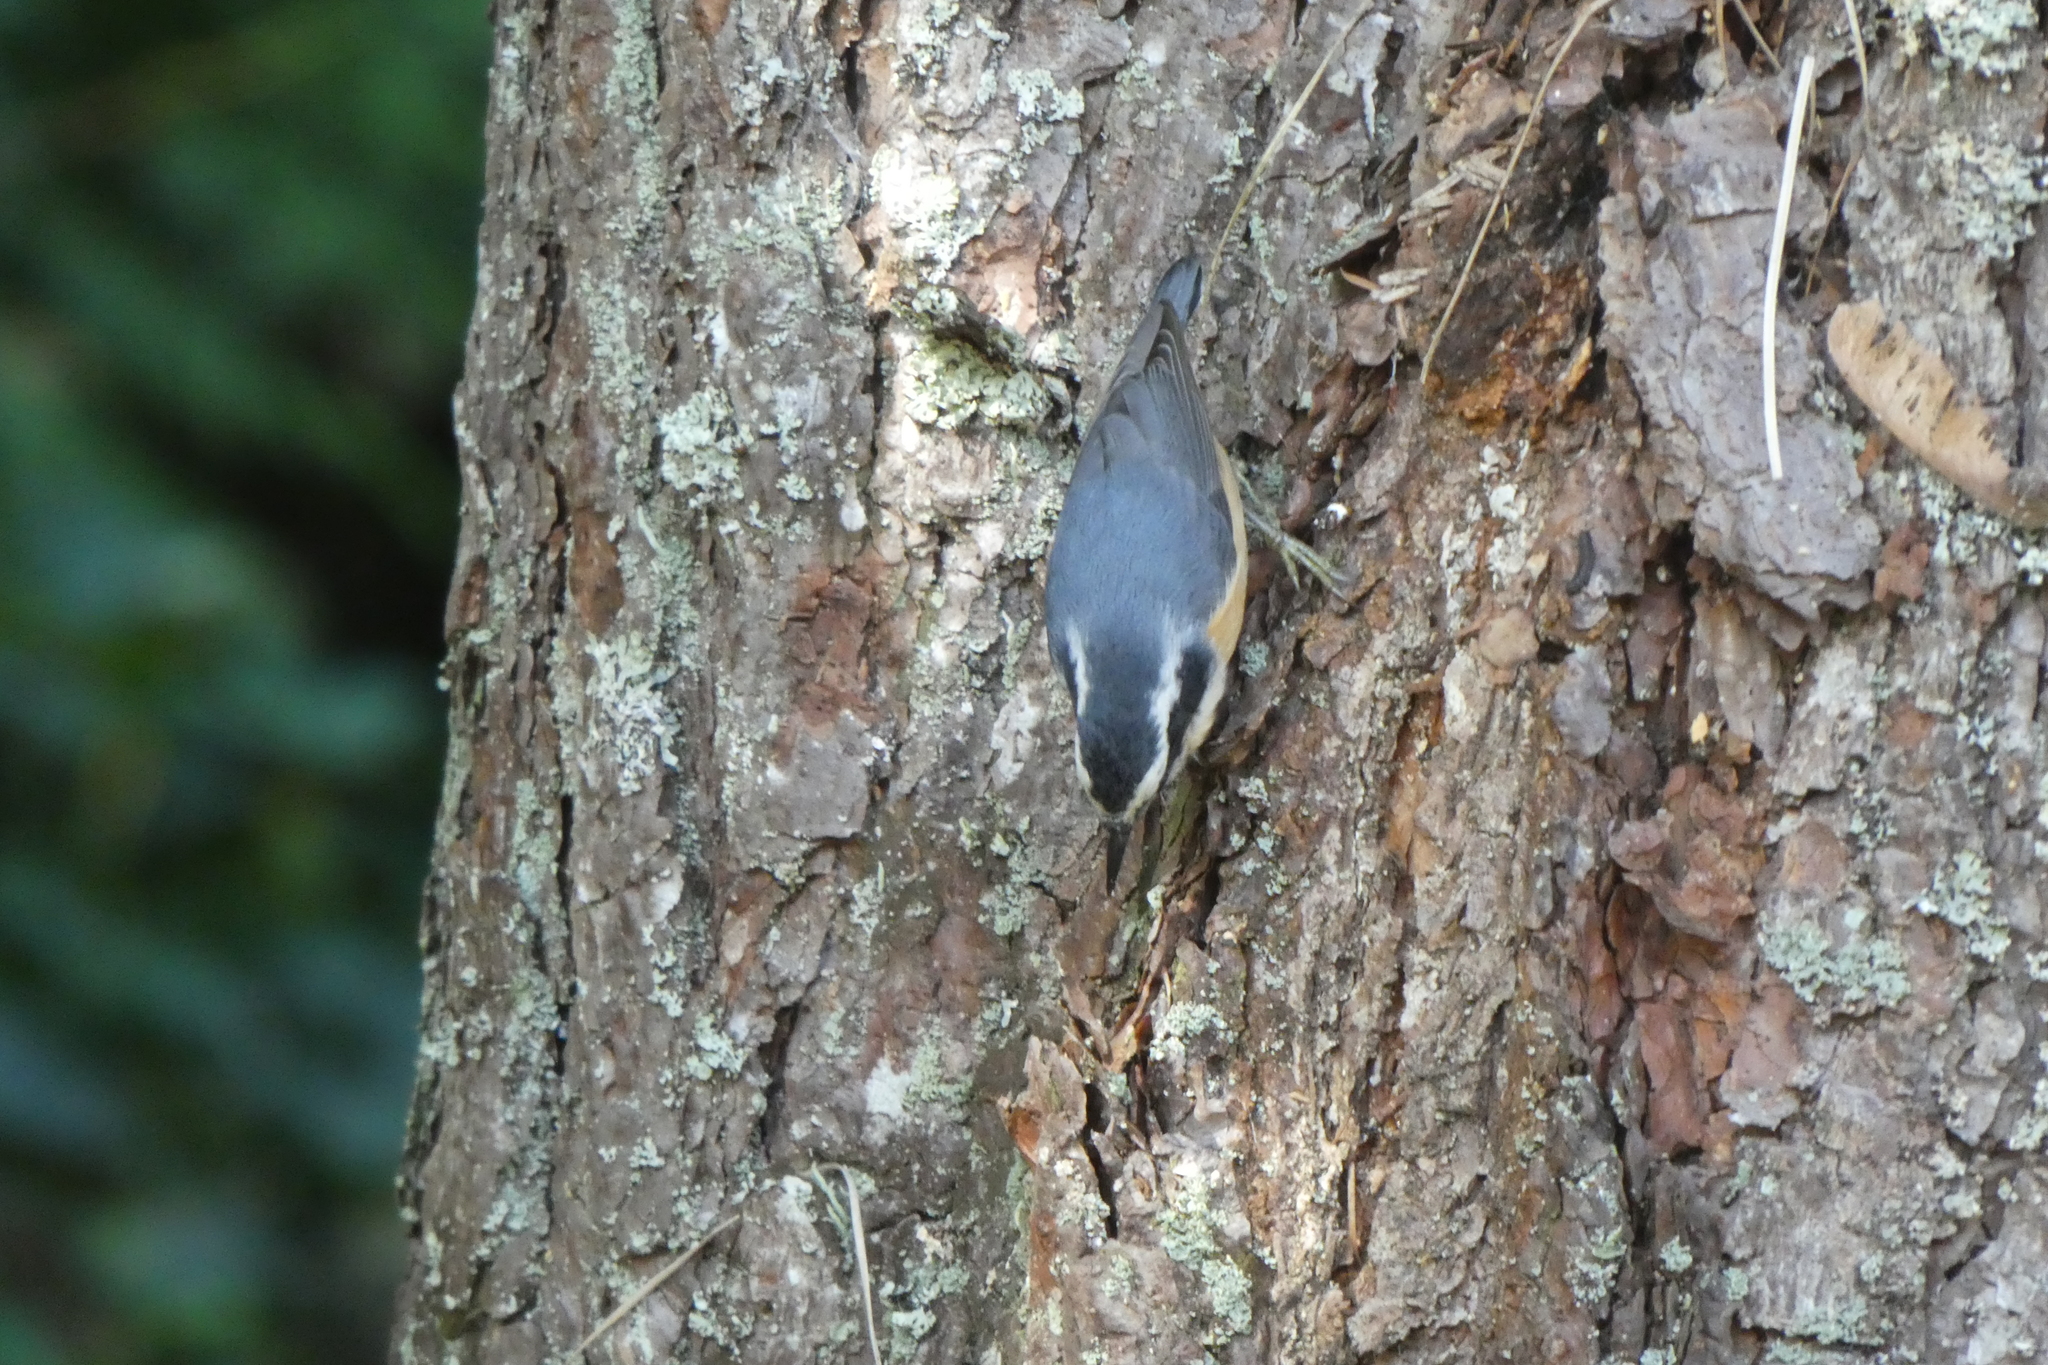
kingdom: Animalia
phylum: Chordata
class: Aves
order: Passeriformes
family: Sittidae
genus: Sitta
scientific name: Sitta canadensis
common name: Red-breasted nuthatch
